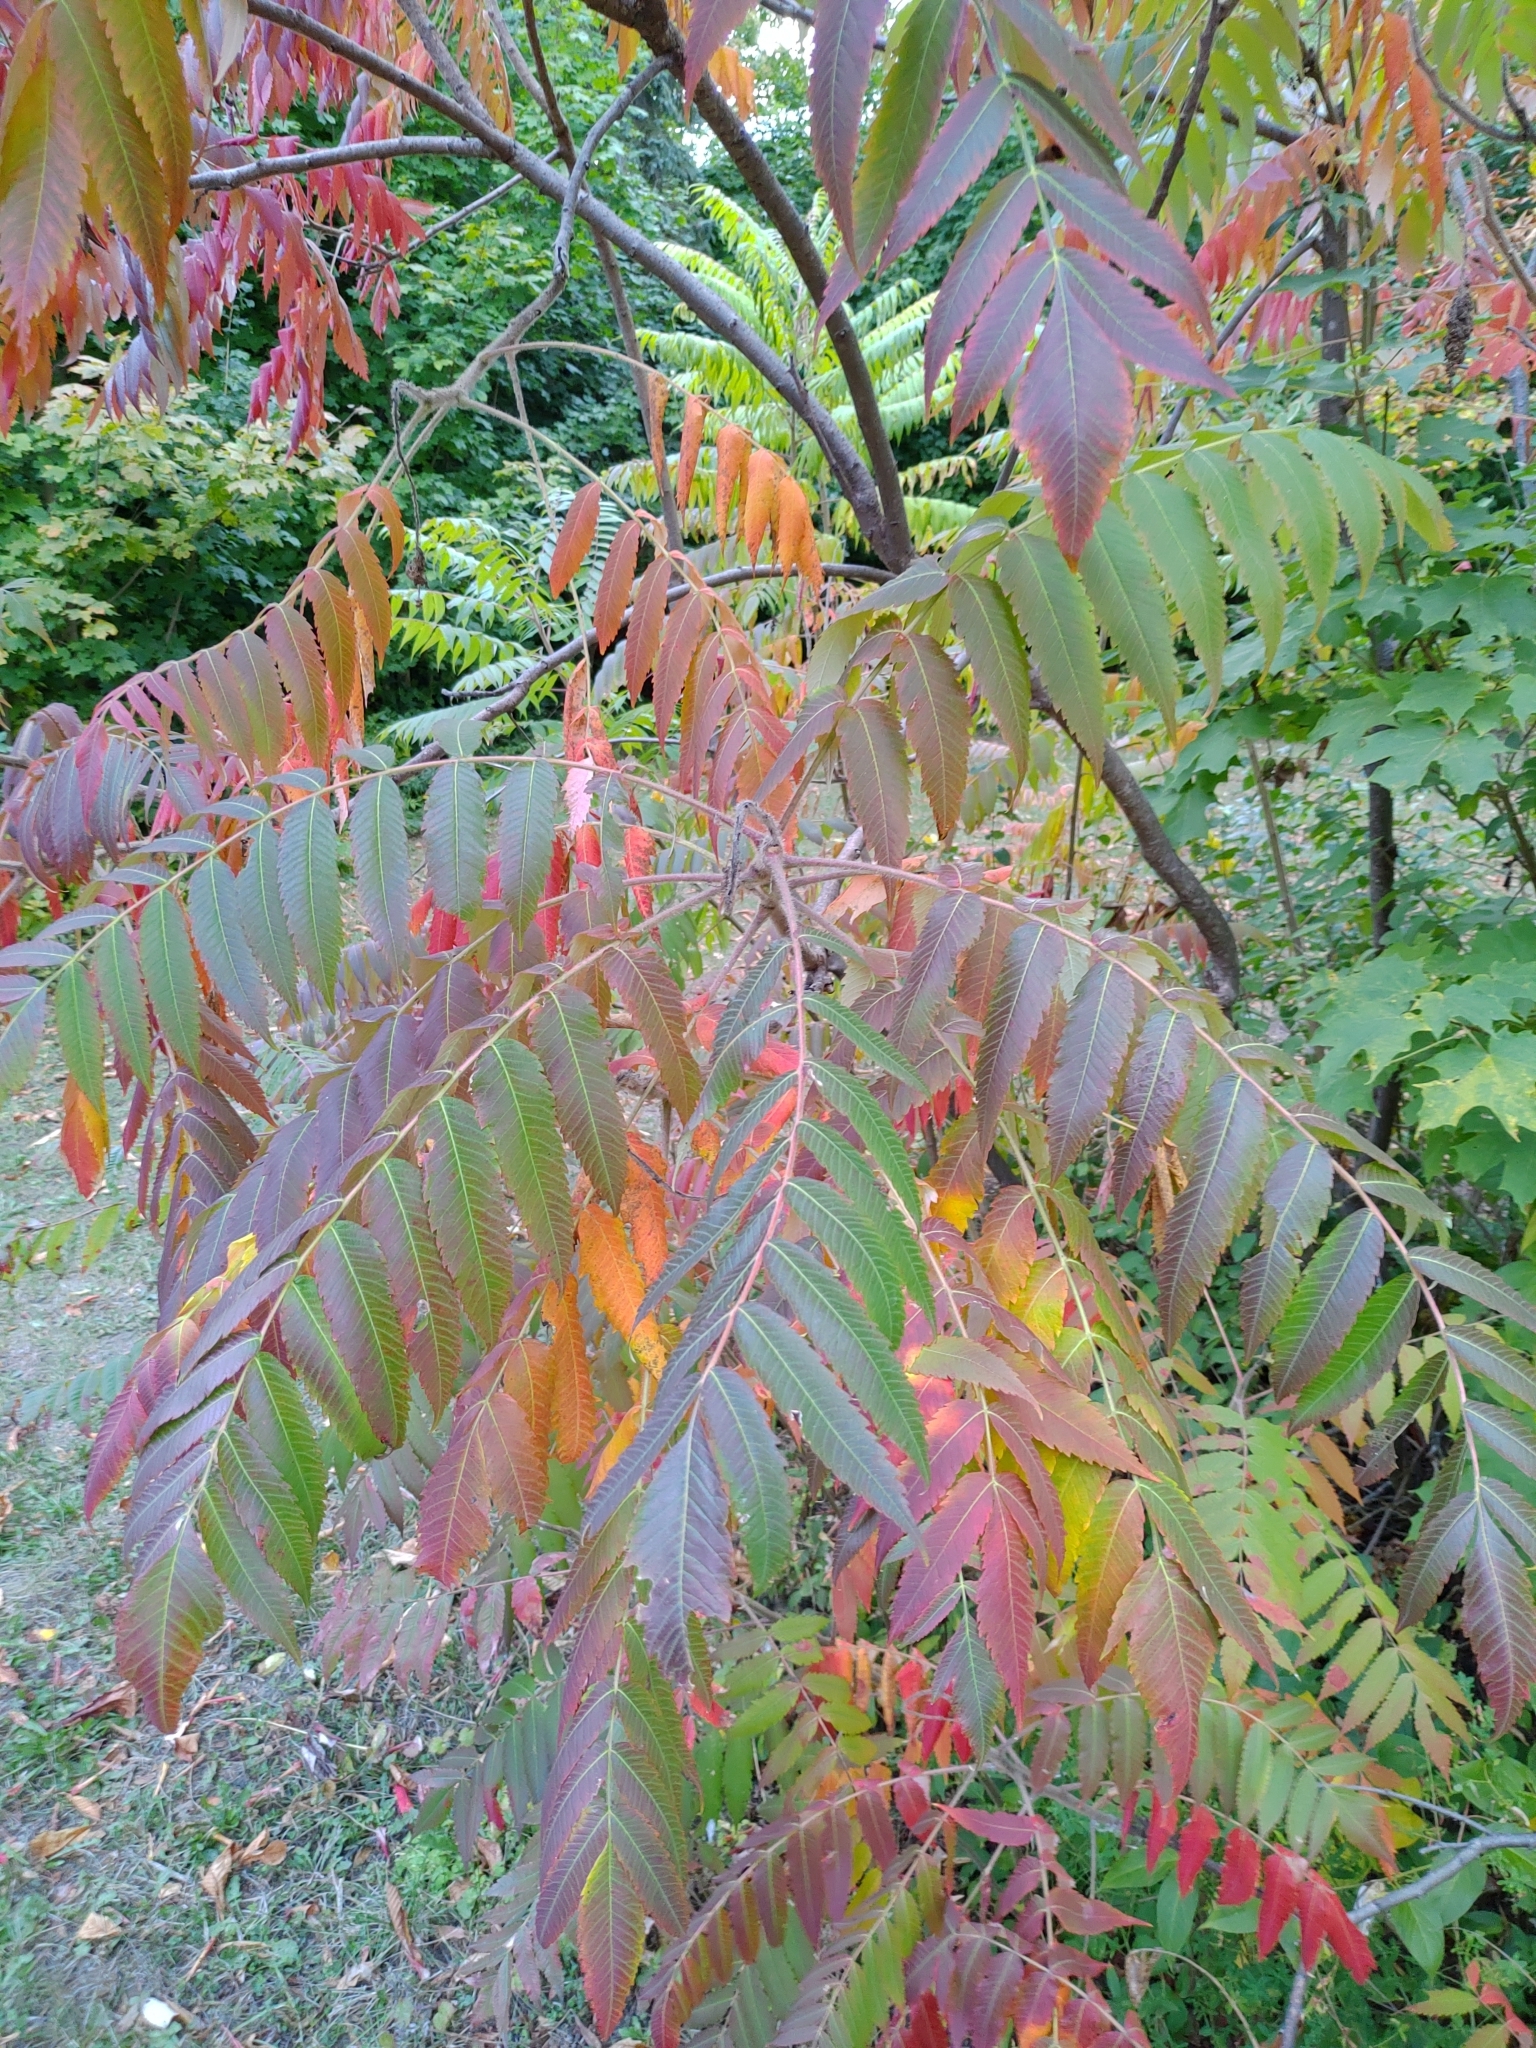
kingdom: Plantae
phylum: Tracheophyta
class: Magnoliopsida
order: Sapindales
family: Anacardiaceae
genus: Rhus
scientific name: Rhus typhina
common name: Staghorn sumac
